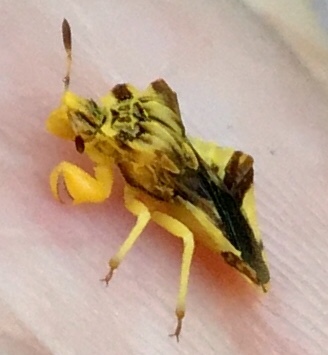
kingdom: Animalia
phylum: Arthropoda
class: Insecta
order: Hemiptera
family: Reduviidae
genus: Phymata
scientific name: Phymata fasciata
